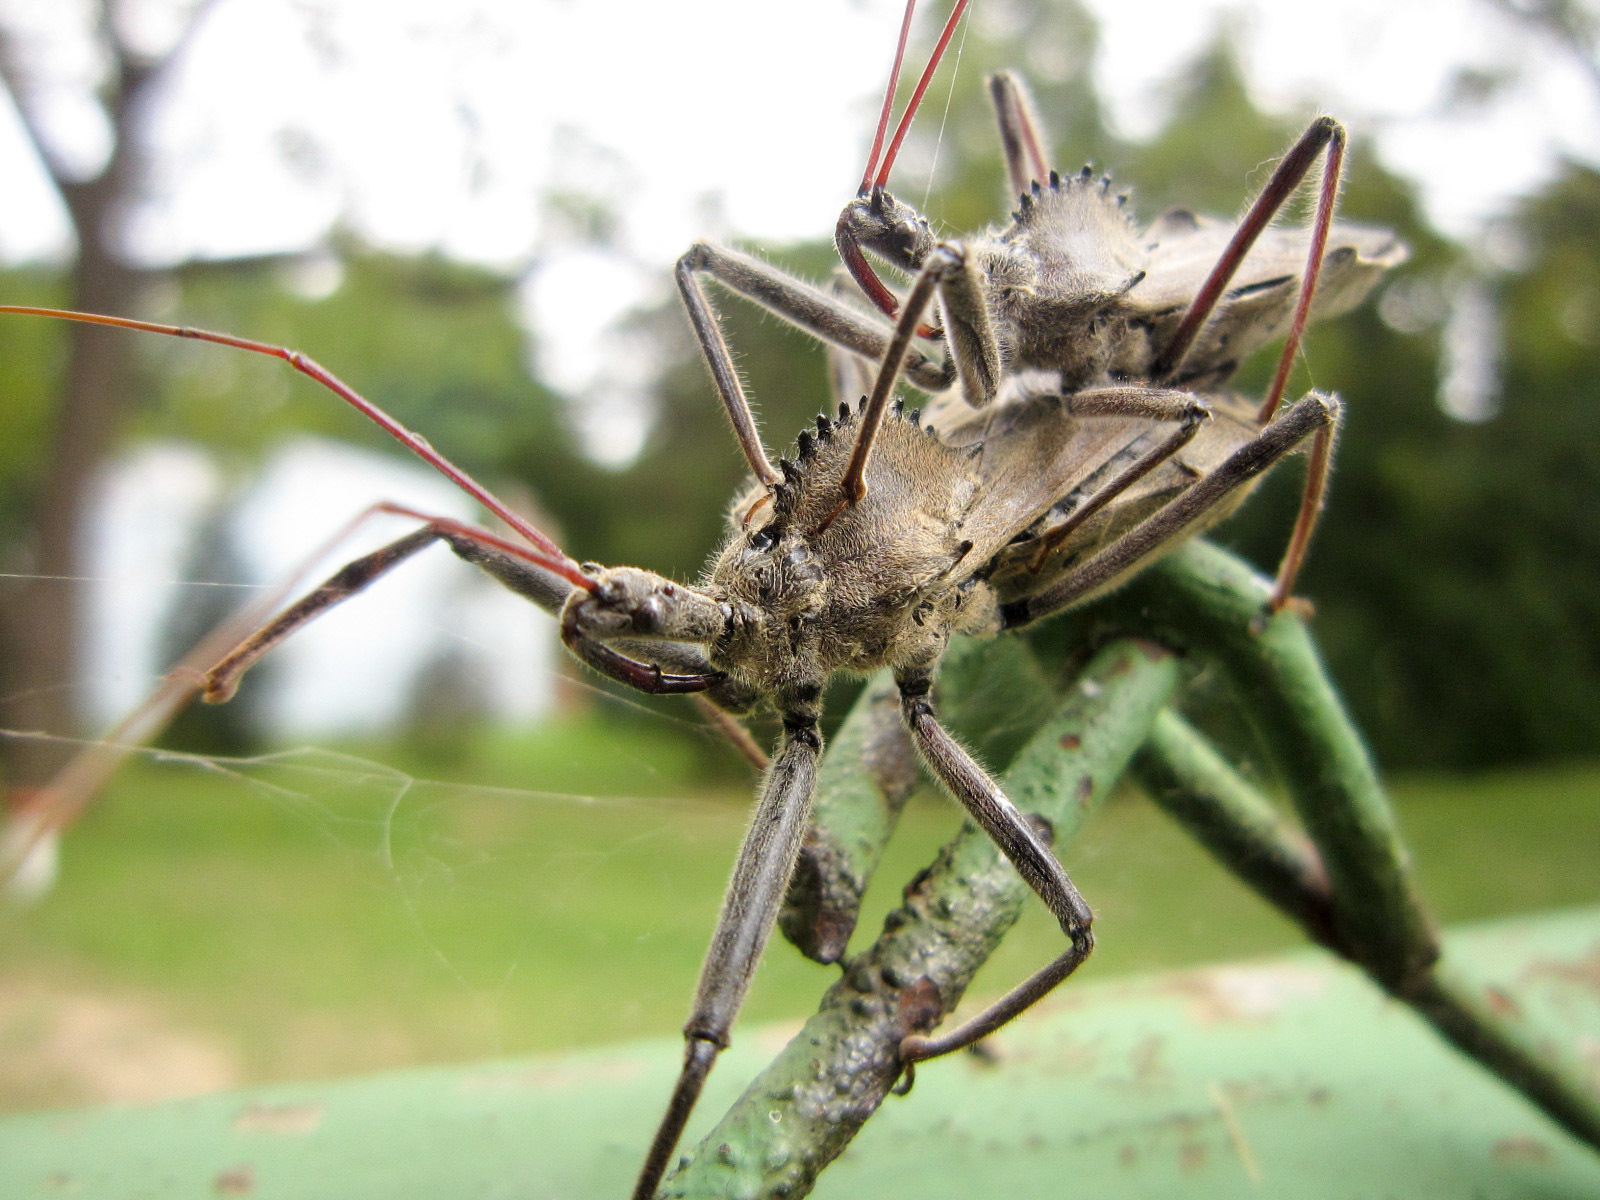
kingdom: Animalia
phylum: Arthropoda
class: Insecta
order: Hemiptera
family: Reduviidae
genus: Arilus
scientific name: Arilus cristatus
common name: North american wheel bug
